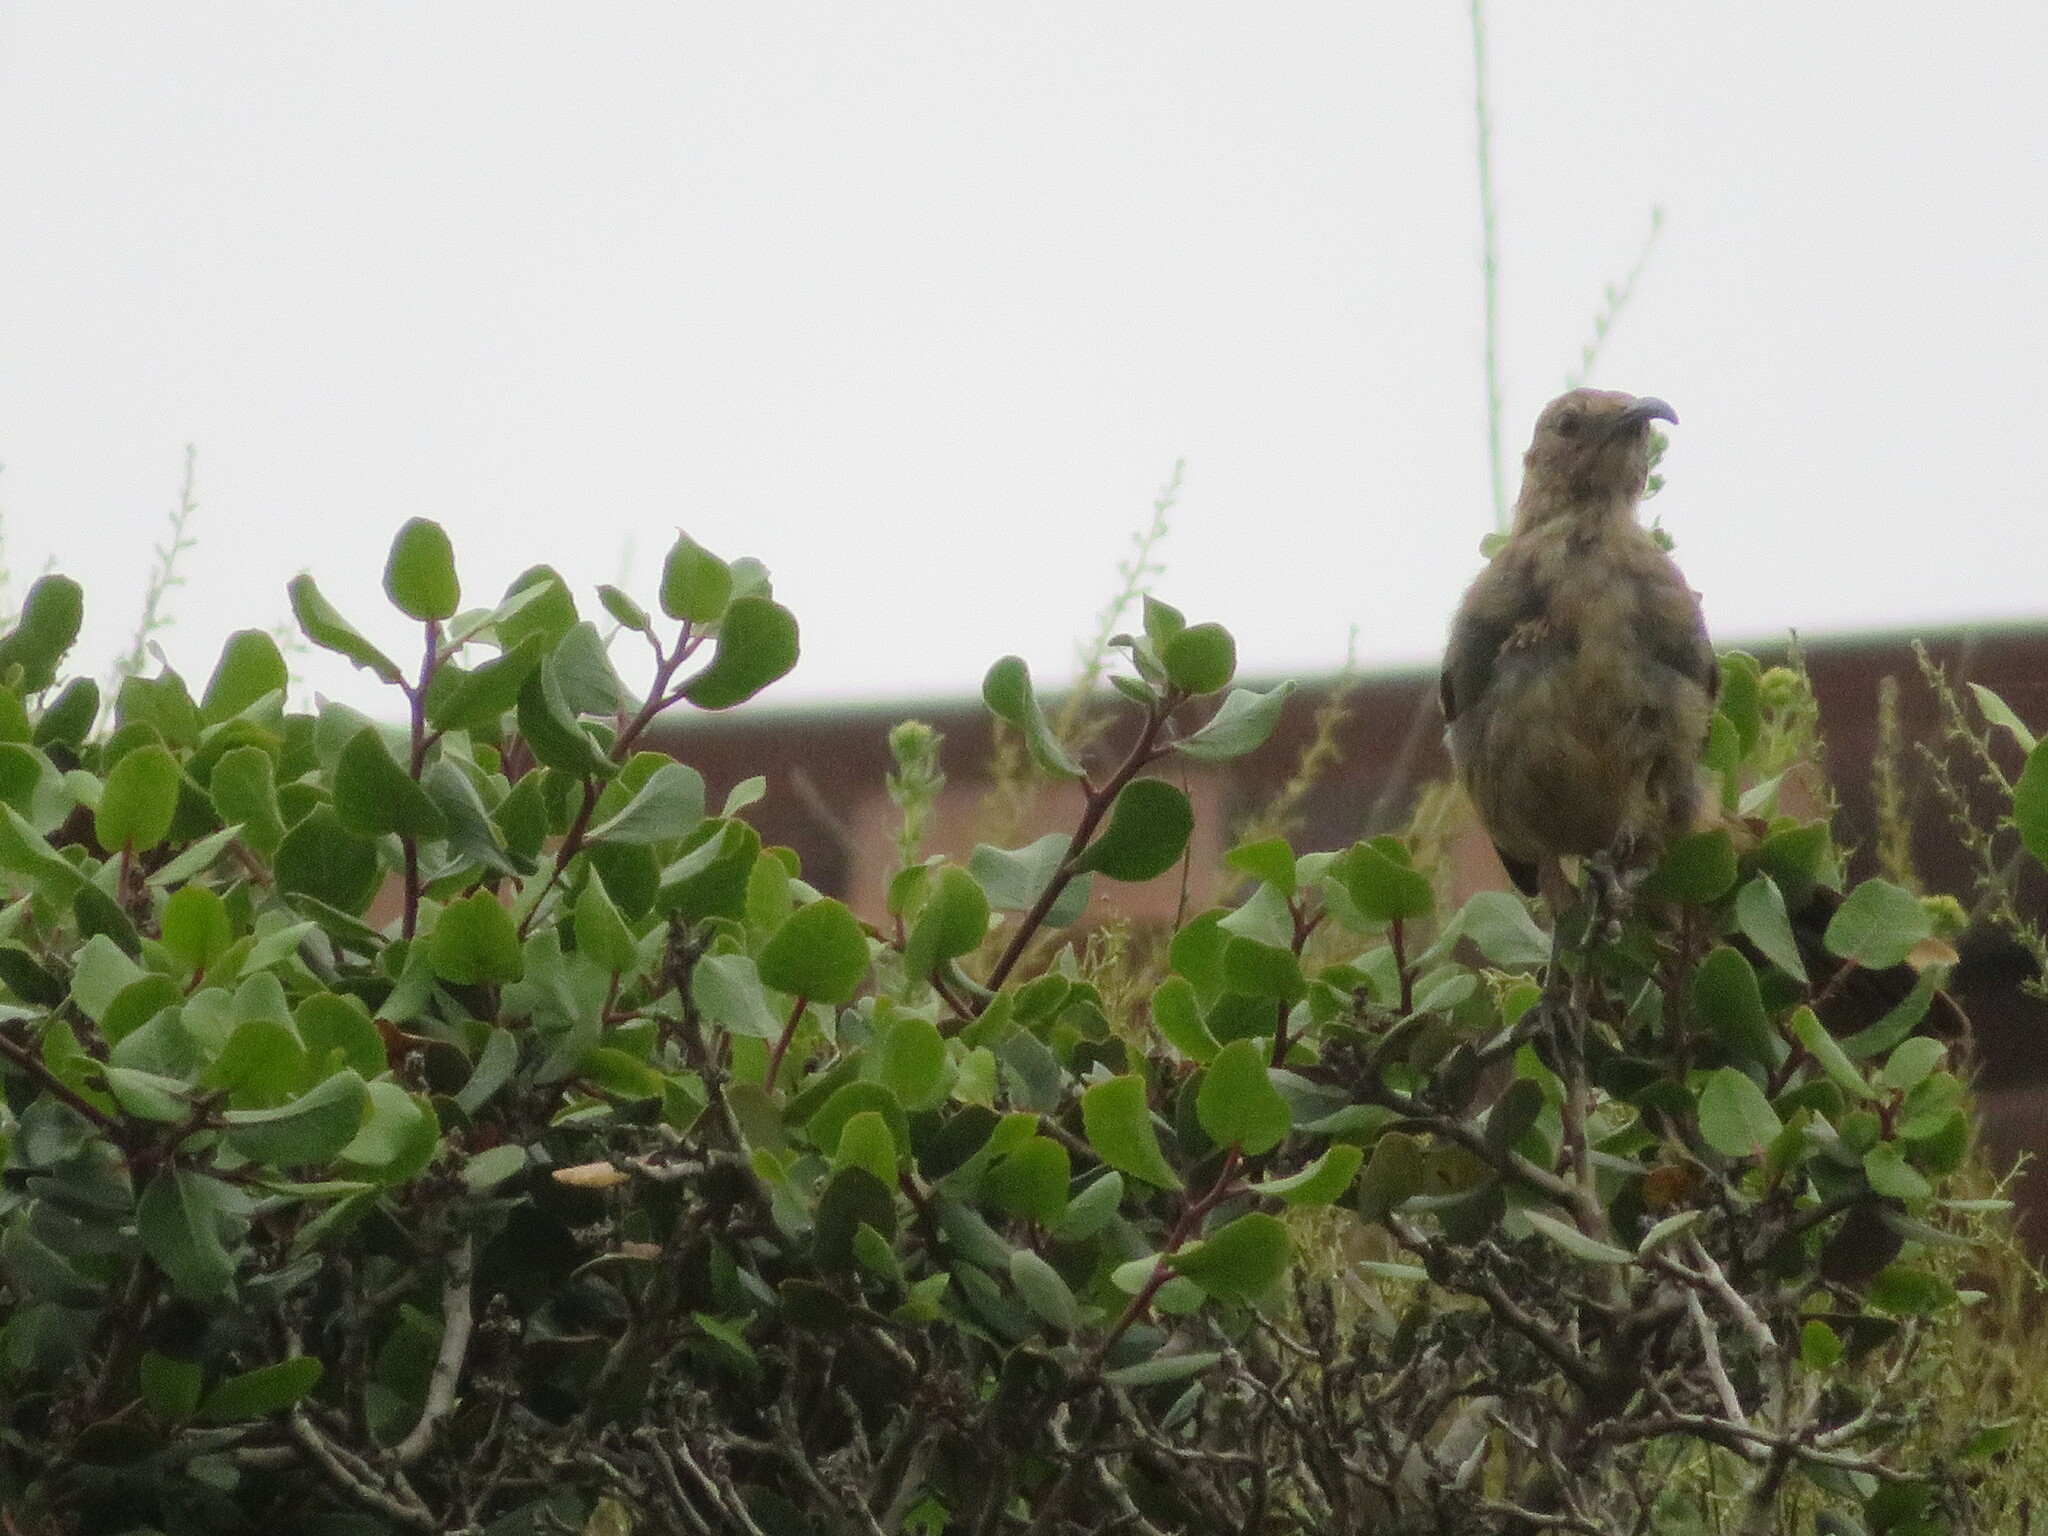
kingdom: Animalia
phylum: Chordata
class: Aves
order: Passeriformes
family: Mimidae
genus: Toxostoma
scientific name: Toxostoma redivivum
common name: California thrasher
